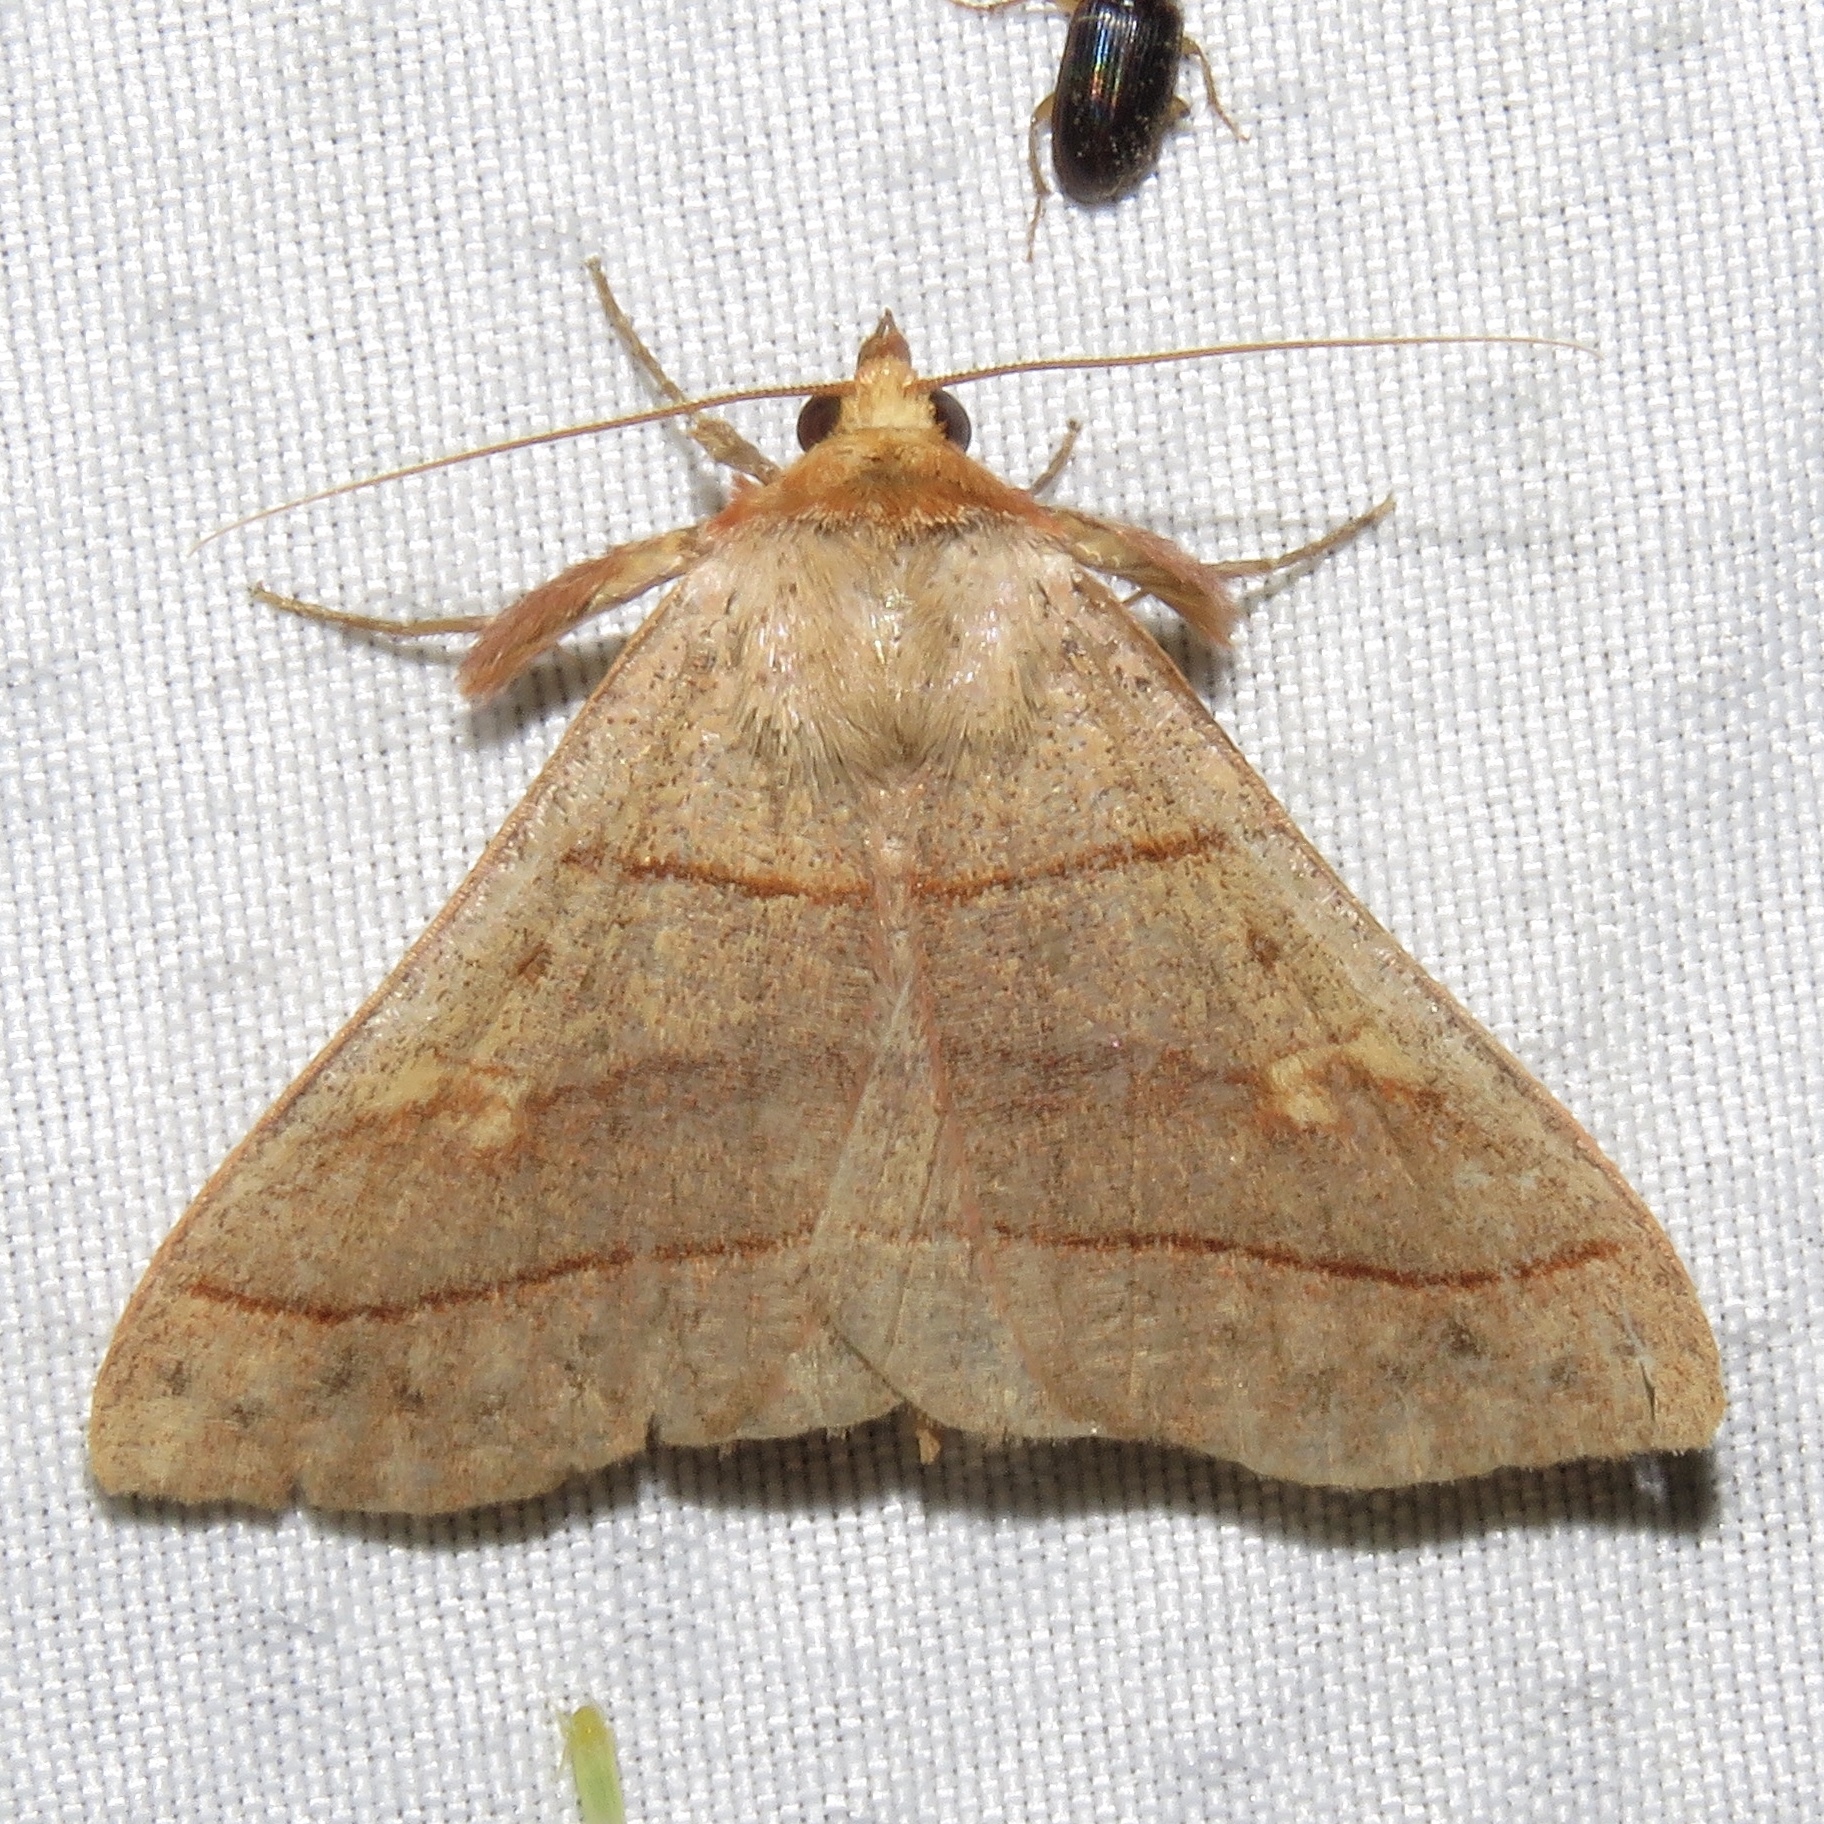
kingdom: Animalia
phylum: Arthropoda
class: Insecta
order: Lepidoptera
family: Erebidae
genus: Panopoda
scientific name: Panopoda rufimargo
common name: Red-lined panopoda moth
